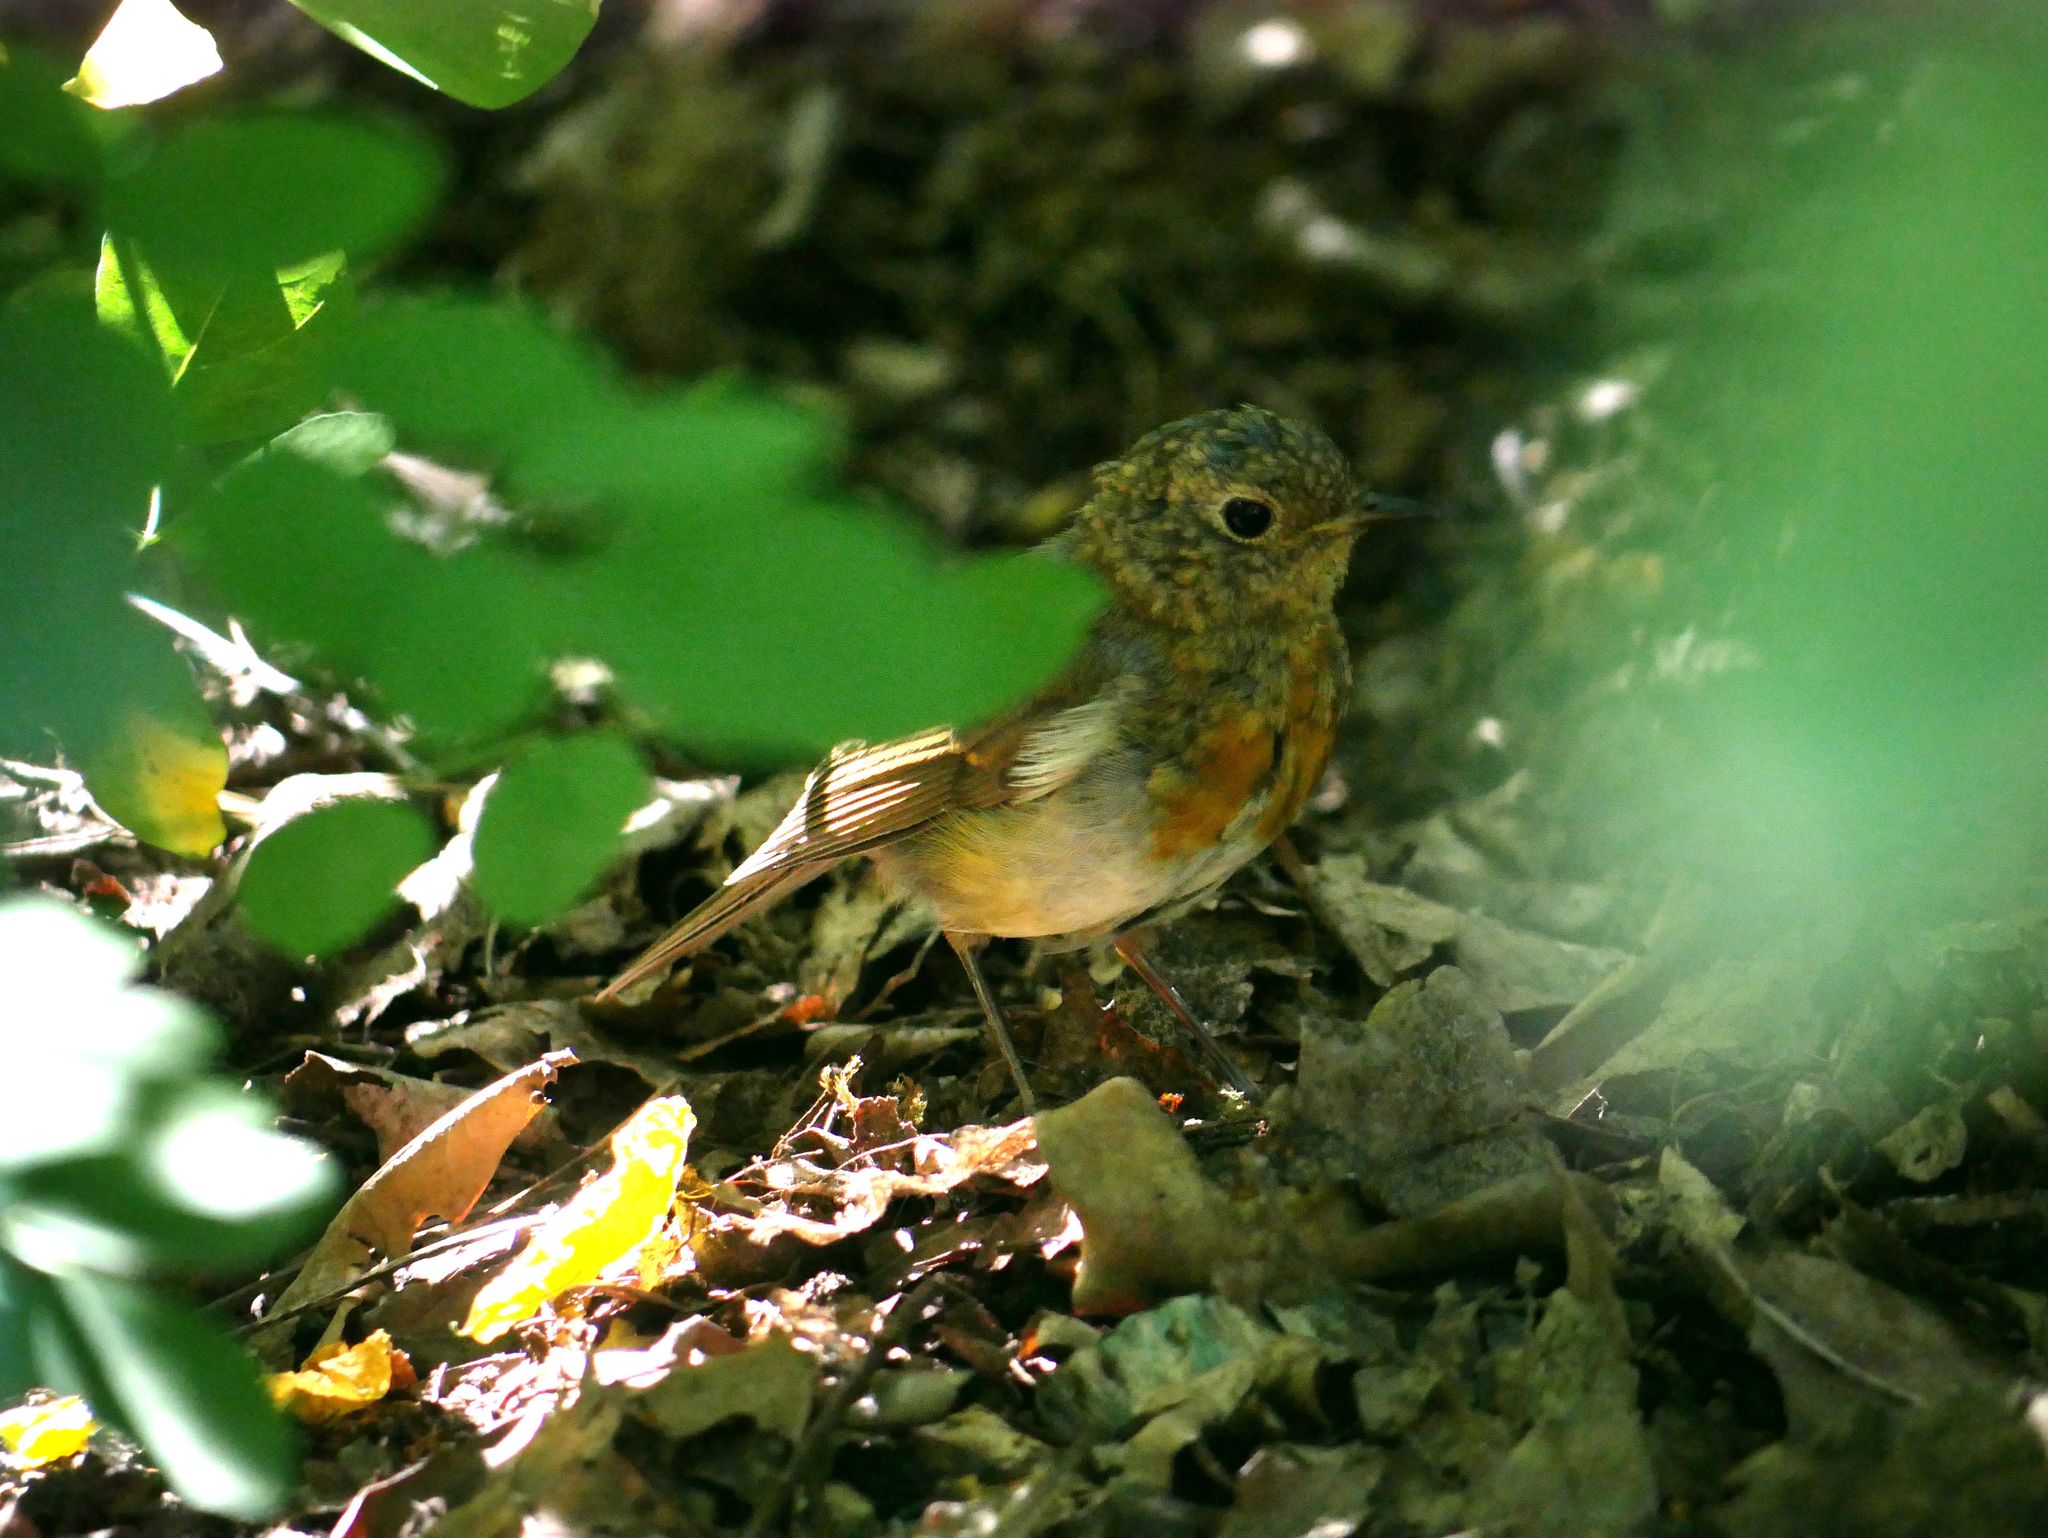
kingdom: Animalia
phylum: Chordata
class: Aves
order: Passeriformes
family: Muscicapidae
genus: Erithacus
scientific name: Erithacus rubecula
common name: European robin
